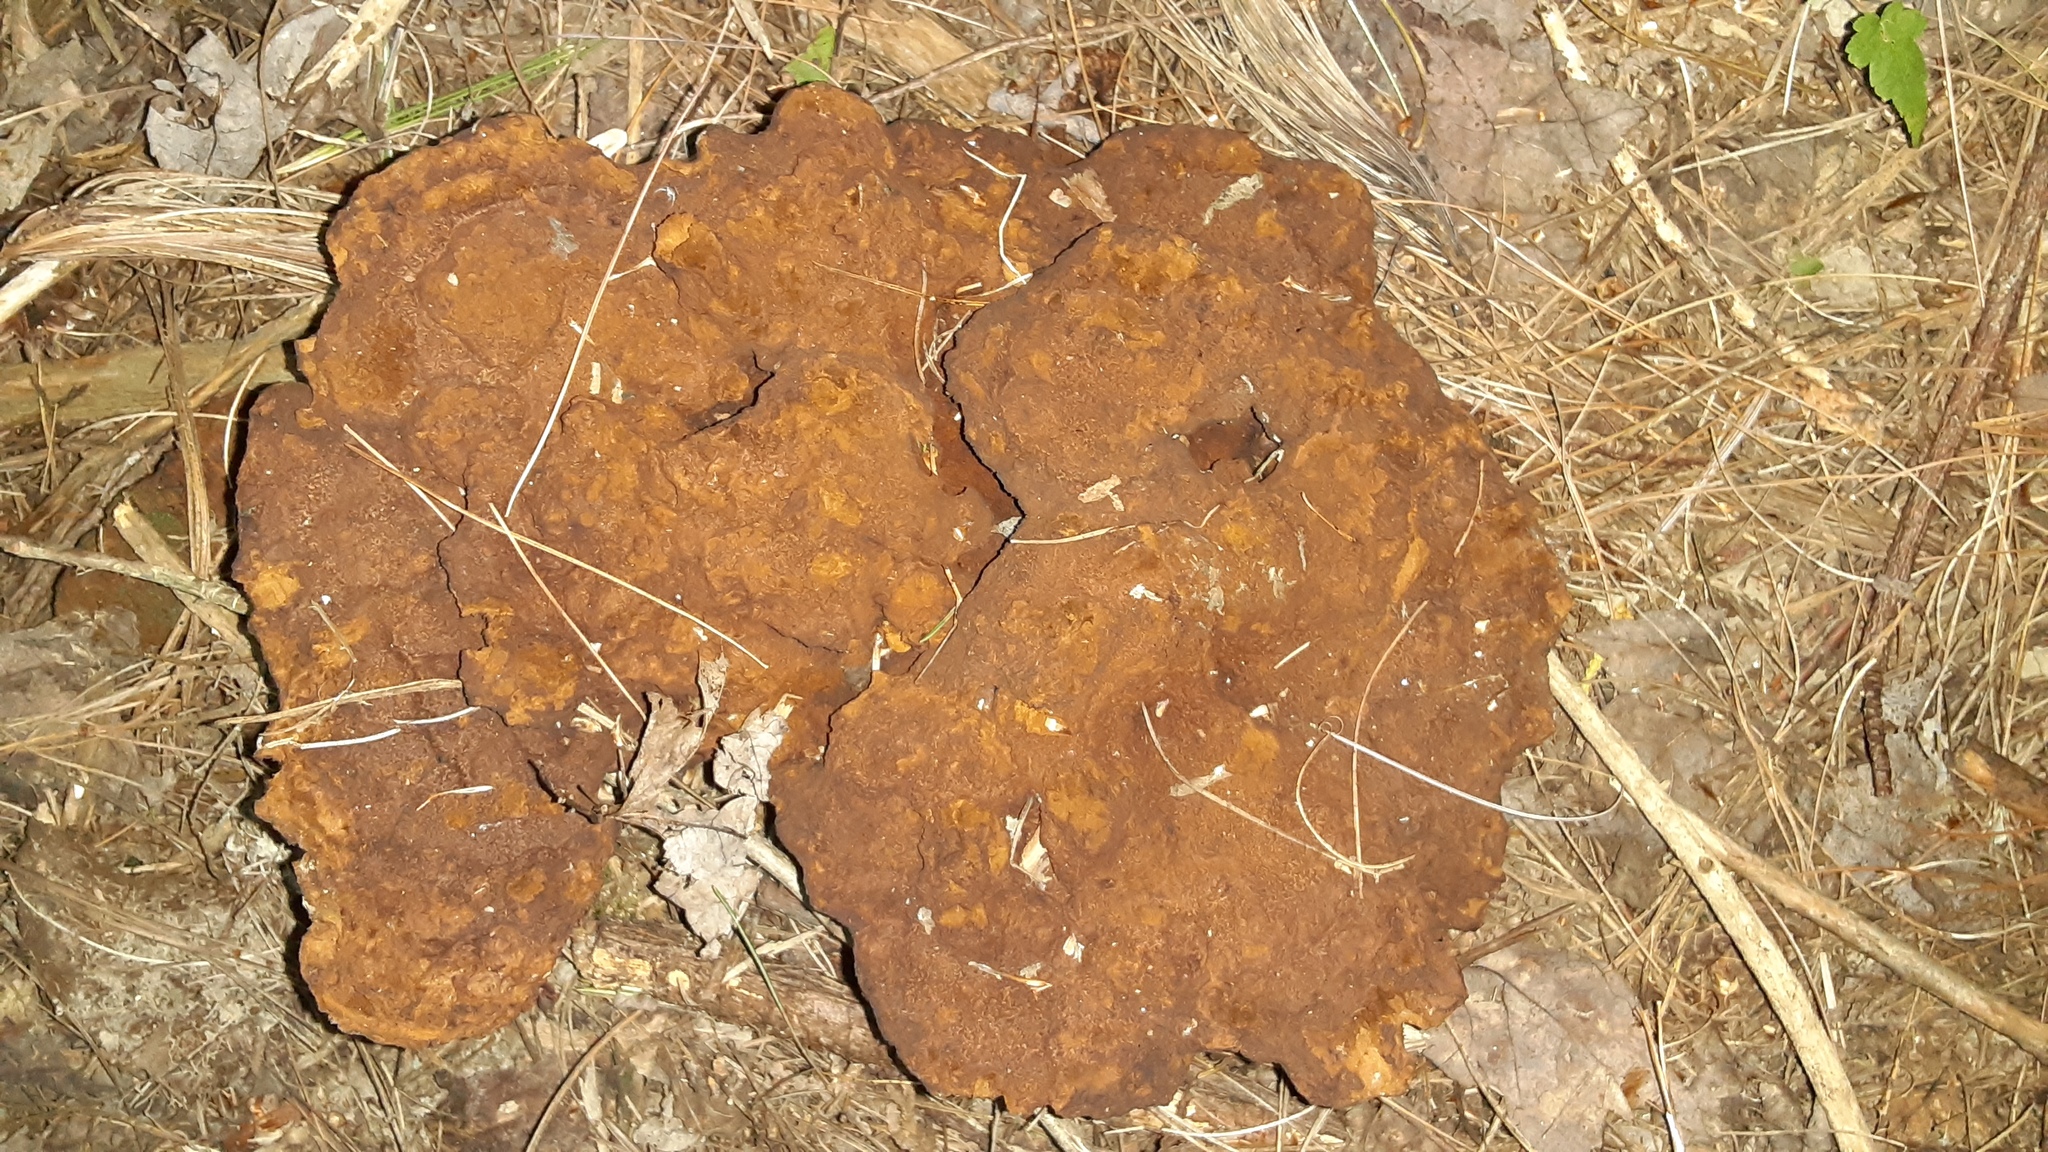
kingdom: Fungi
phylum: Basidiomycota
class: Agaricomycetes
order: Polyporales
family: Laetiporaceae
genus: Phaeolus
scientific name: Phaeolus schweinitzii
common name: Dyer's mazegill
